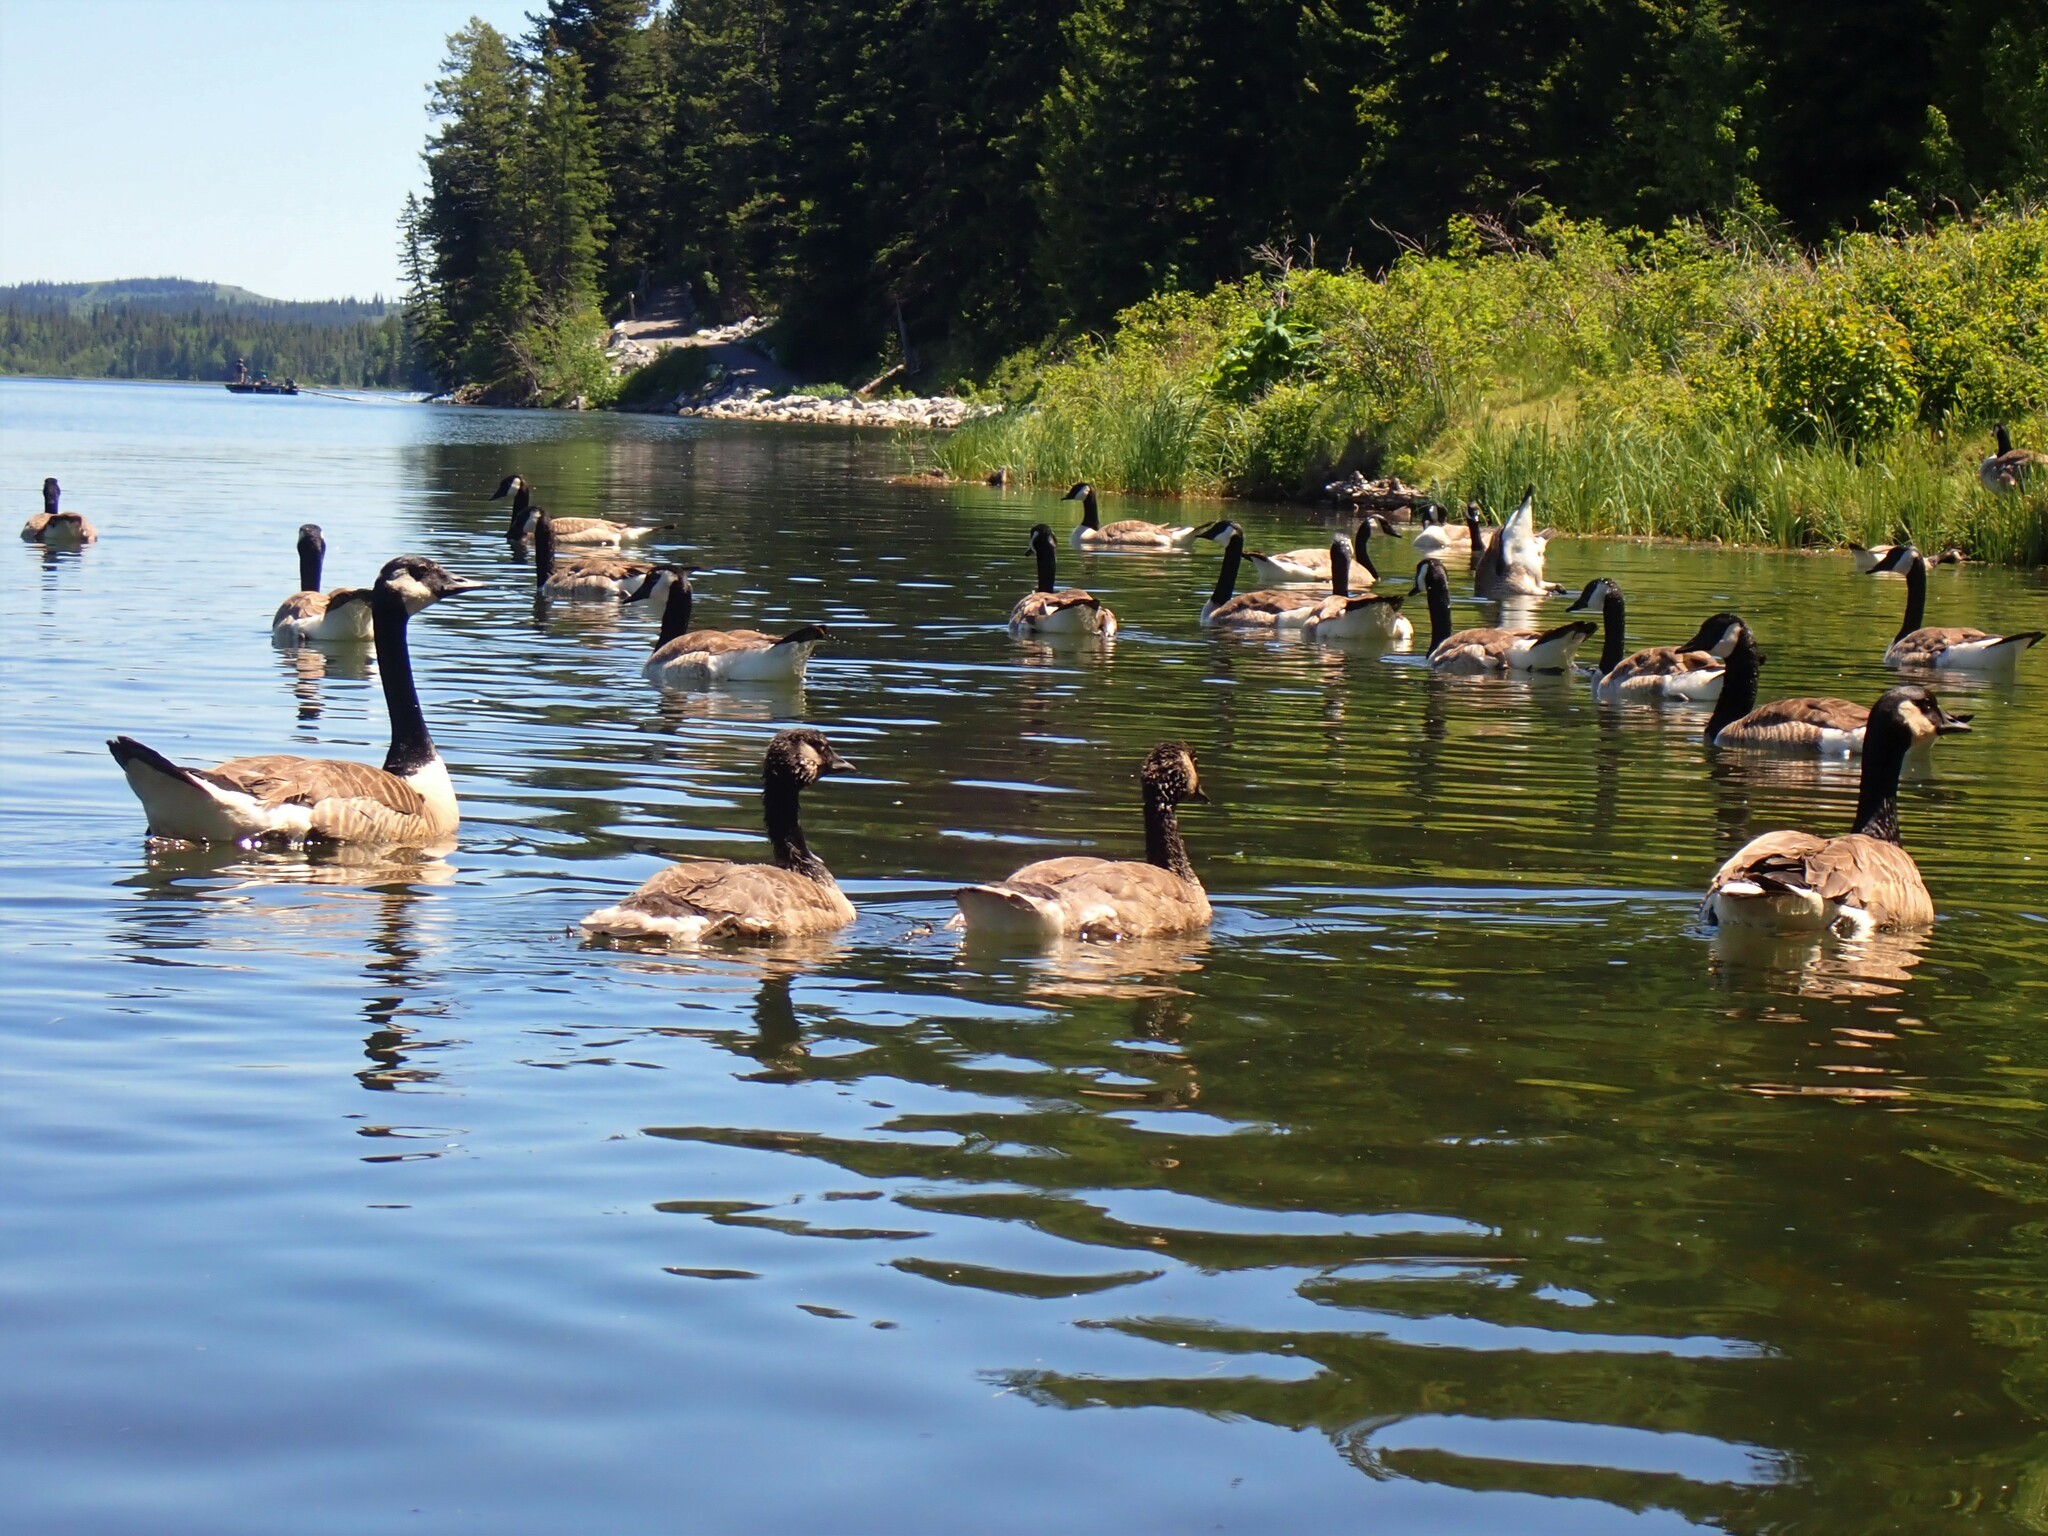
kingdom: Animalia
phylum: Chordata
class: Aves
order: Anseriformes
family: Anatidae
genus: Branta
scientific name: Branta canadensis
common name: Canada goose
